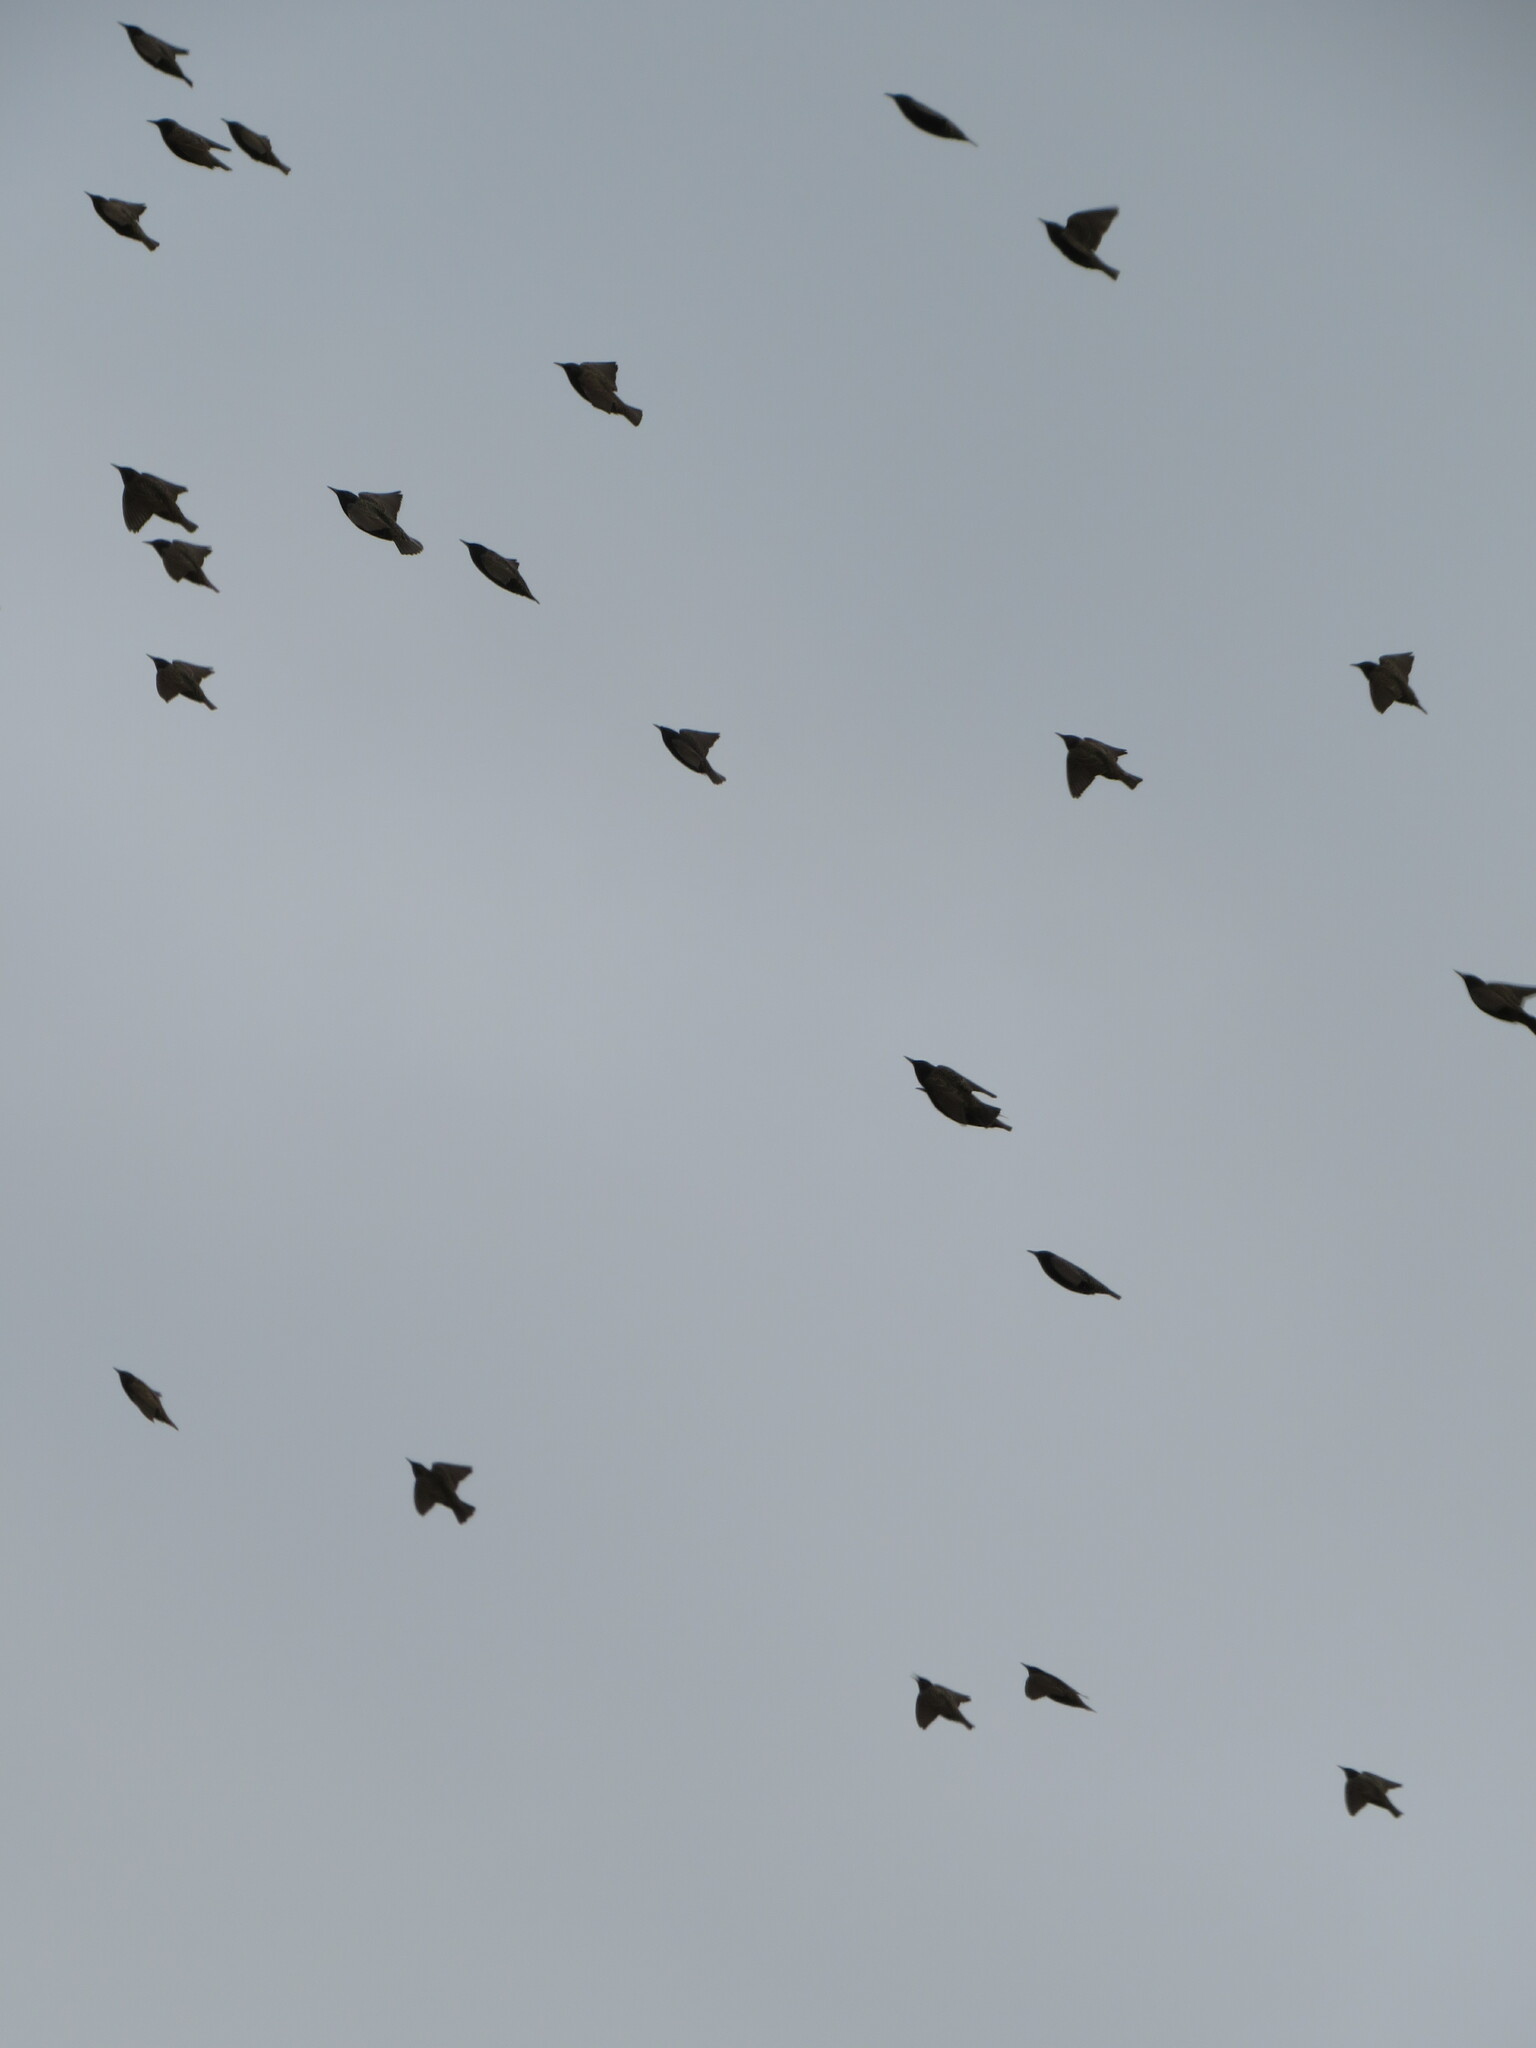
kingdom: Animalia
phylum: Chordata
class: Aves
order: Passeriformes
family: Sturnidae
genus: Sturnus
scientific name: Sturnus vulgaris
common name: Common starling
